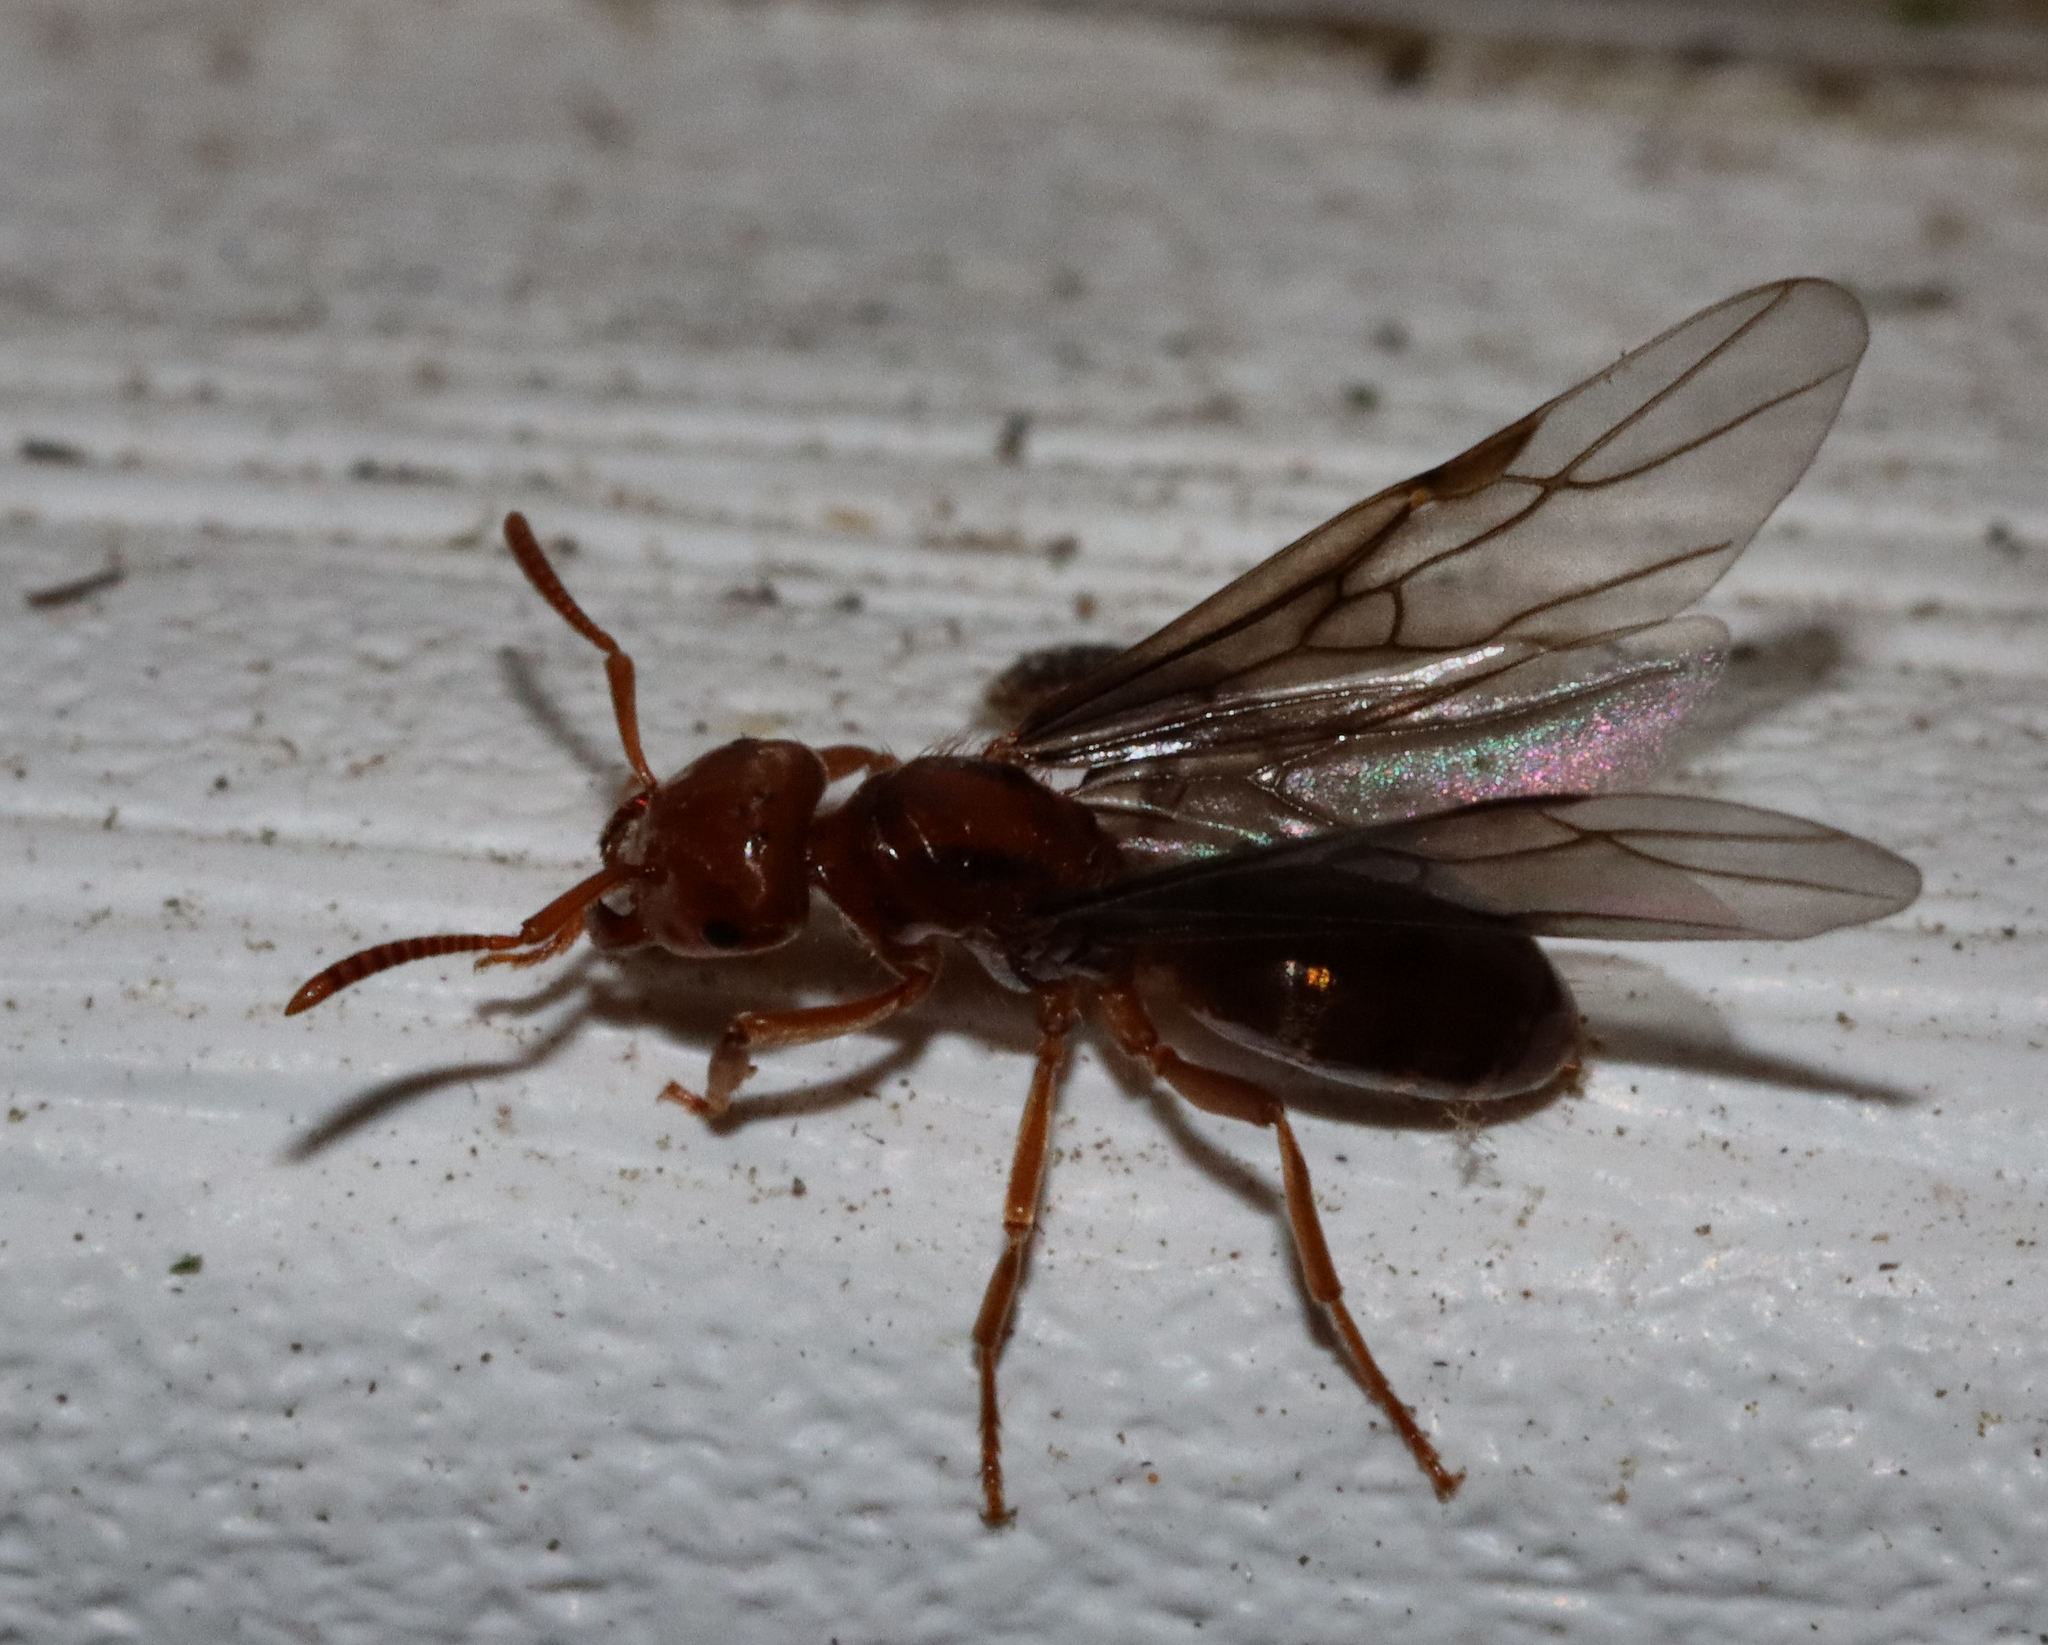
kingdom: Animalia
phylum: Arthropoda
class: Insecta
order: Hymenoptera
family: Formicidae
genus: Acanthomyops
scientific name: Acanthomyops interjectus
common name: Larger yellow ant
